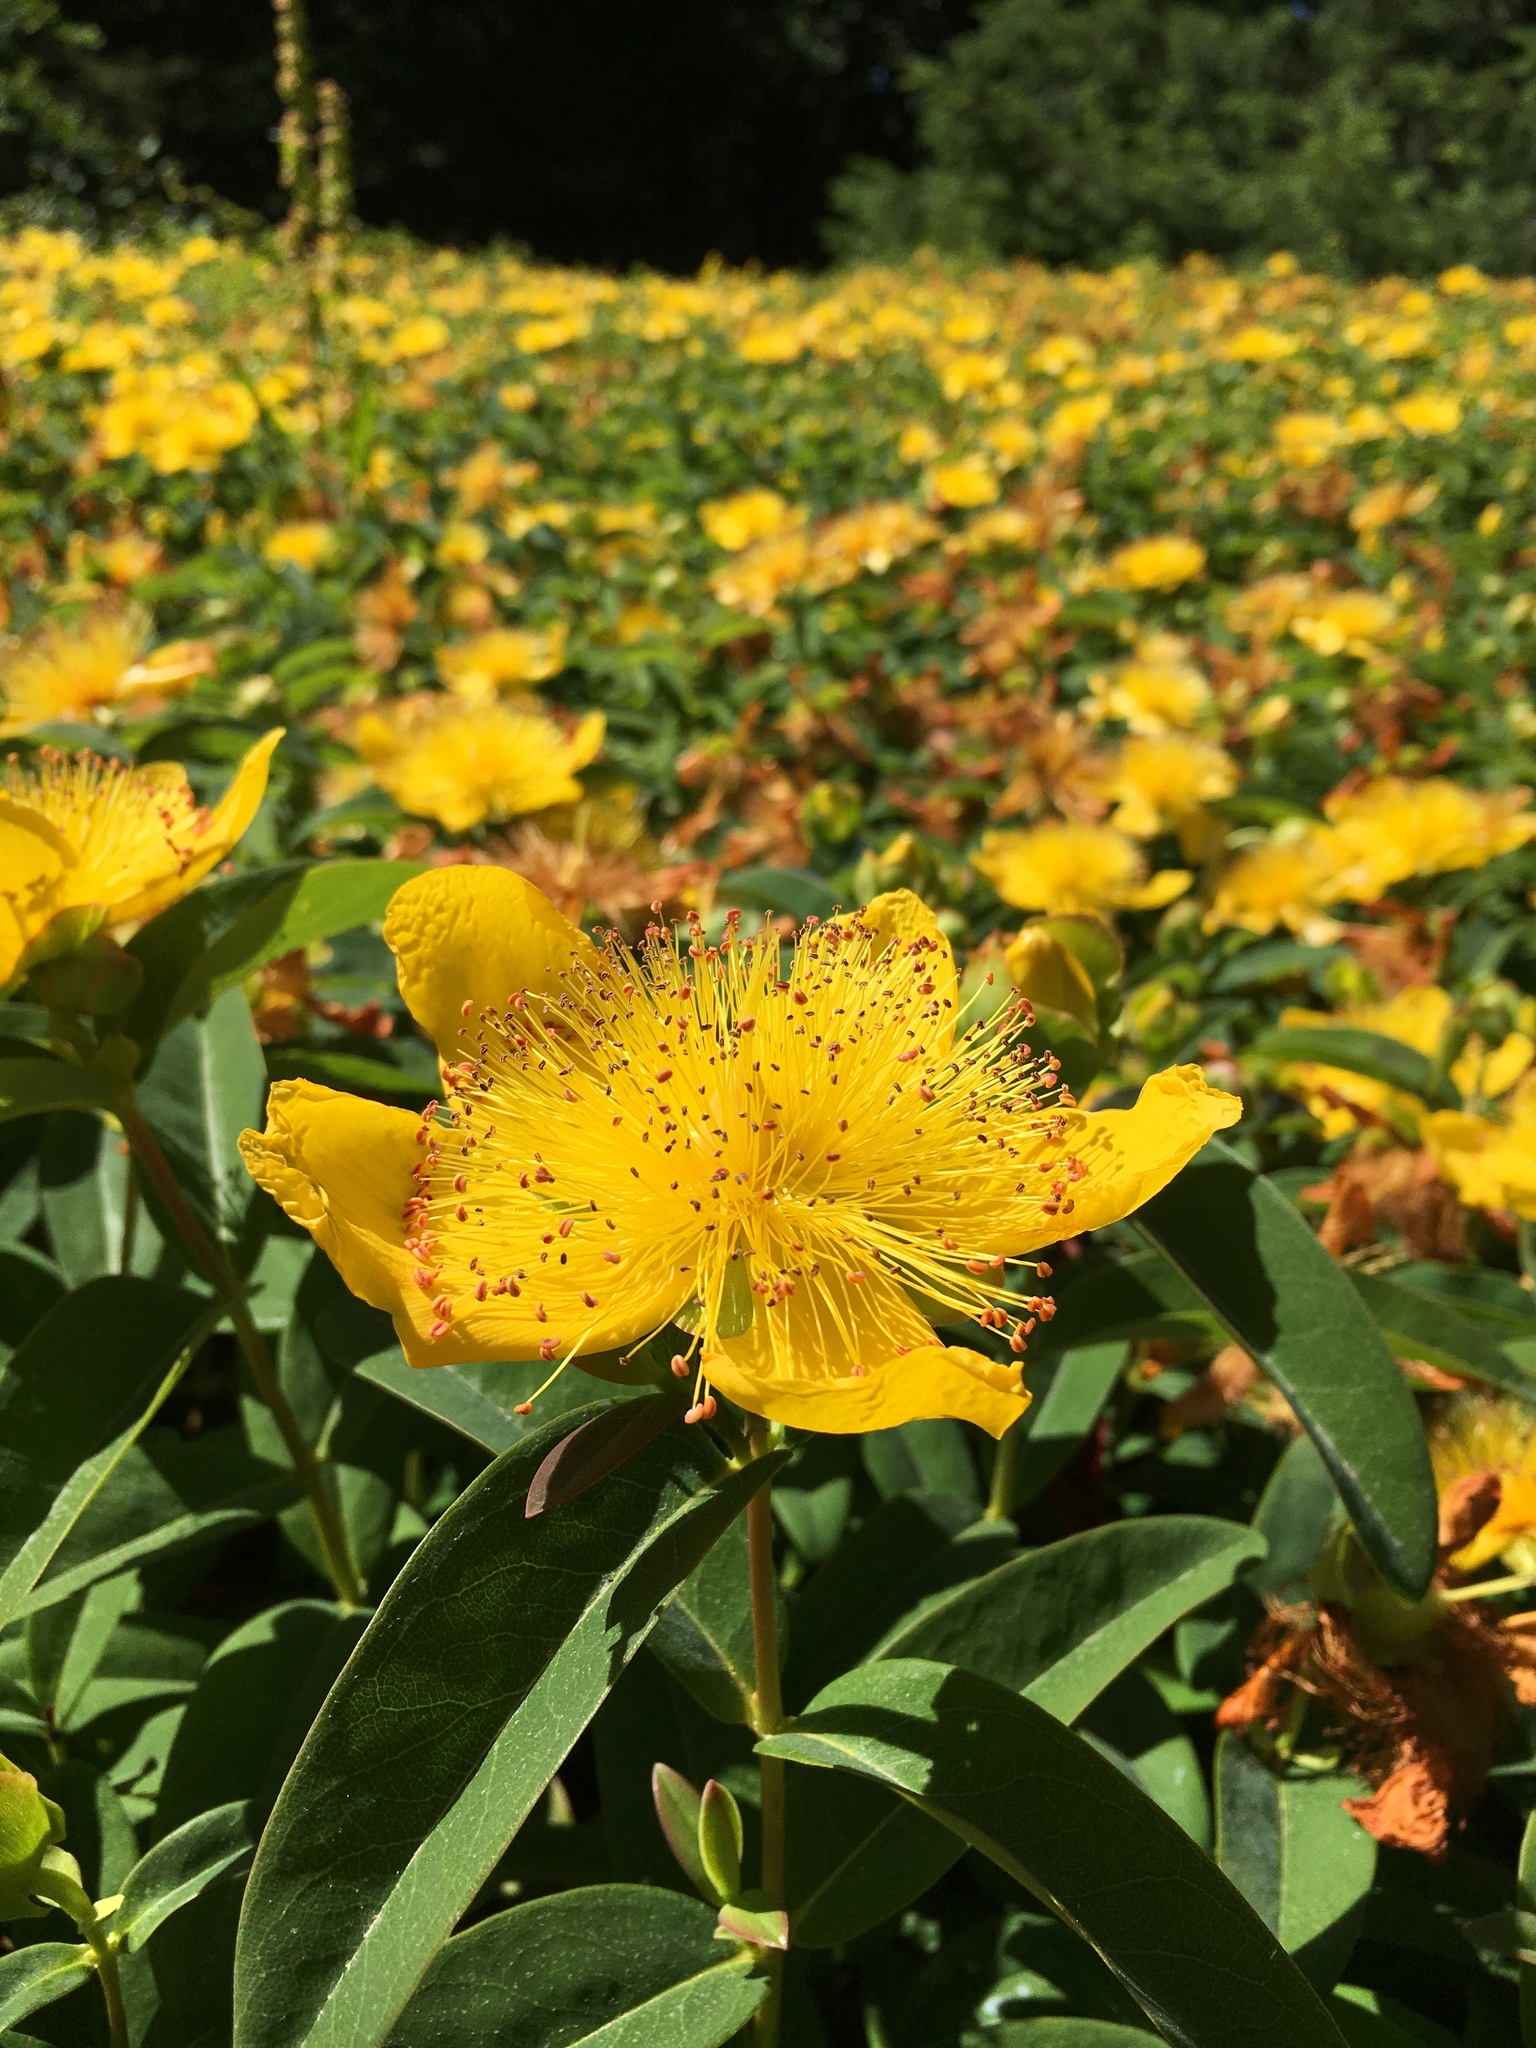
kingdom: Plantae
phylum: Tracheophyta
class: Magnoliopsida
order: Malpighiales
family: Hypericaceae
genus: Hypericum
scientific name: Hypericum calycinum
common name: Rose-of-sharon
